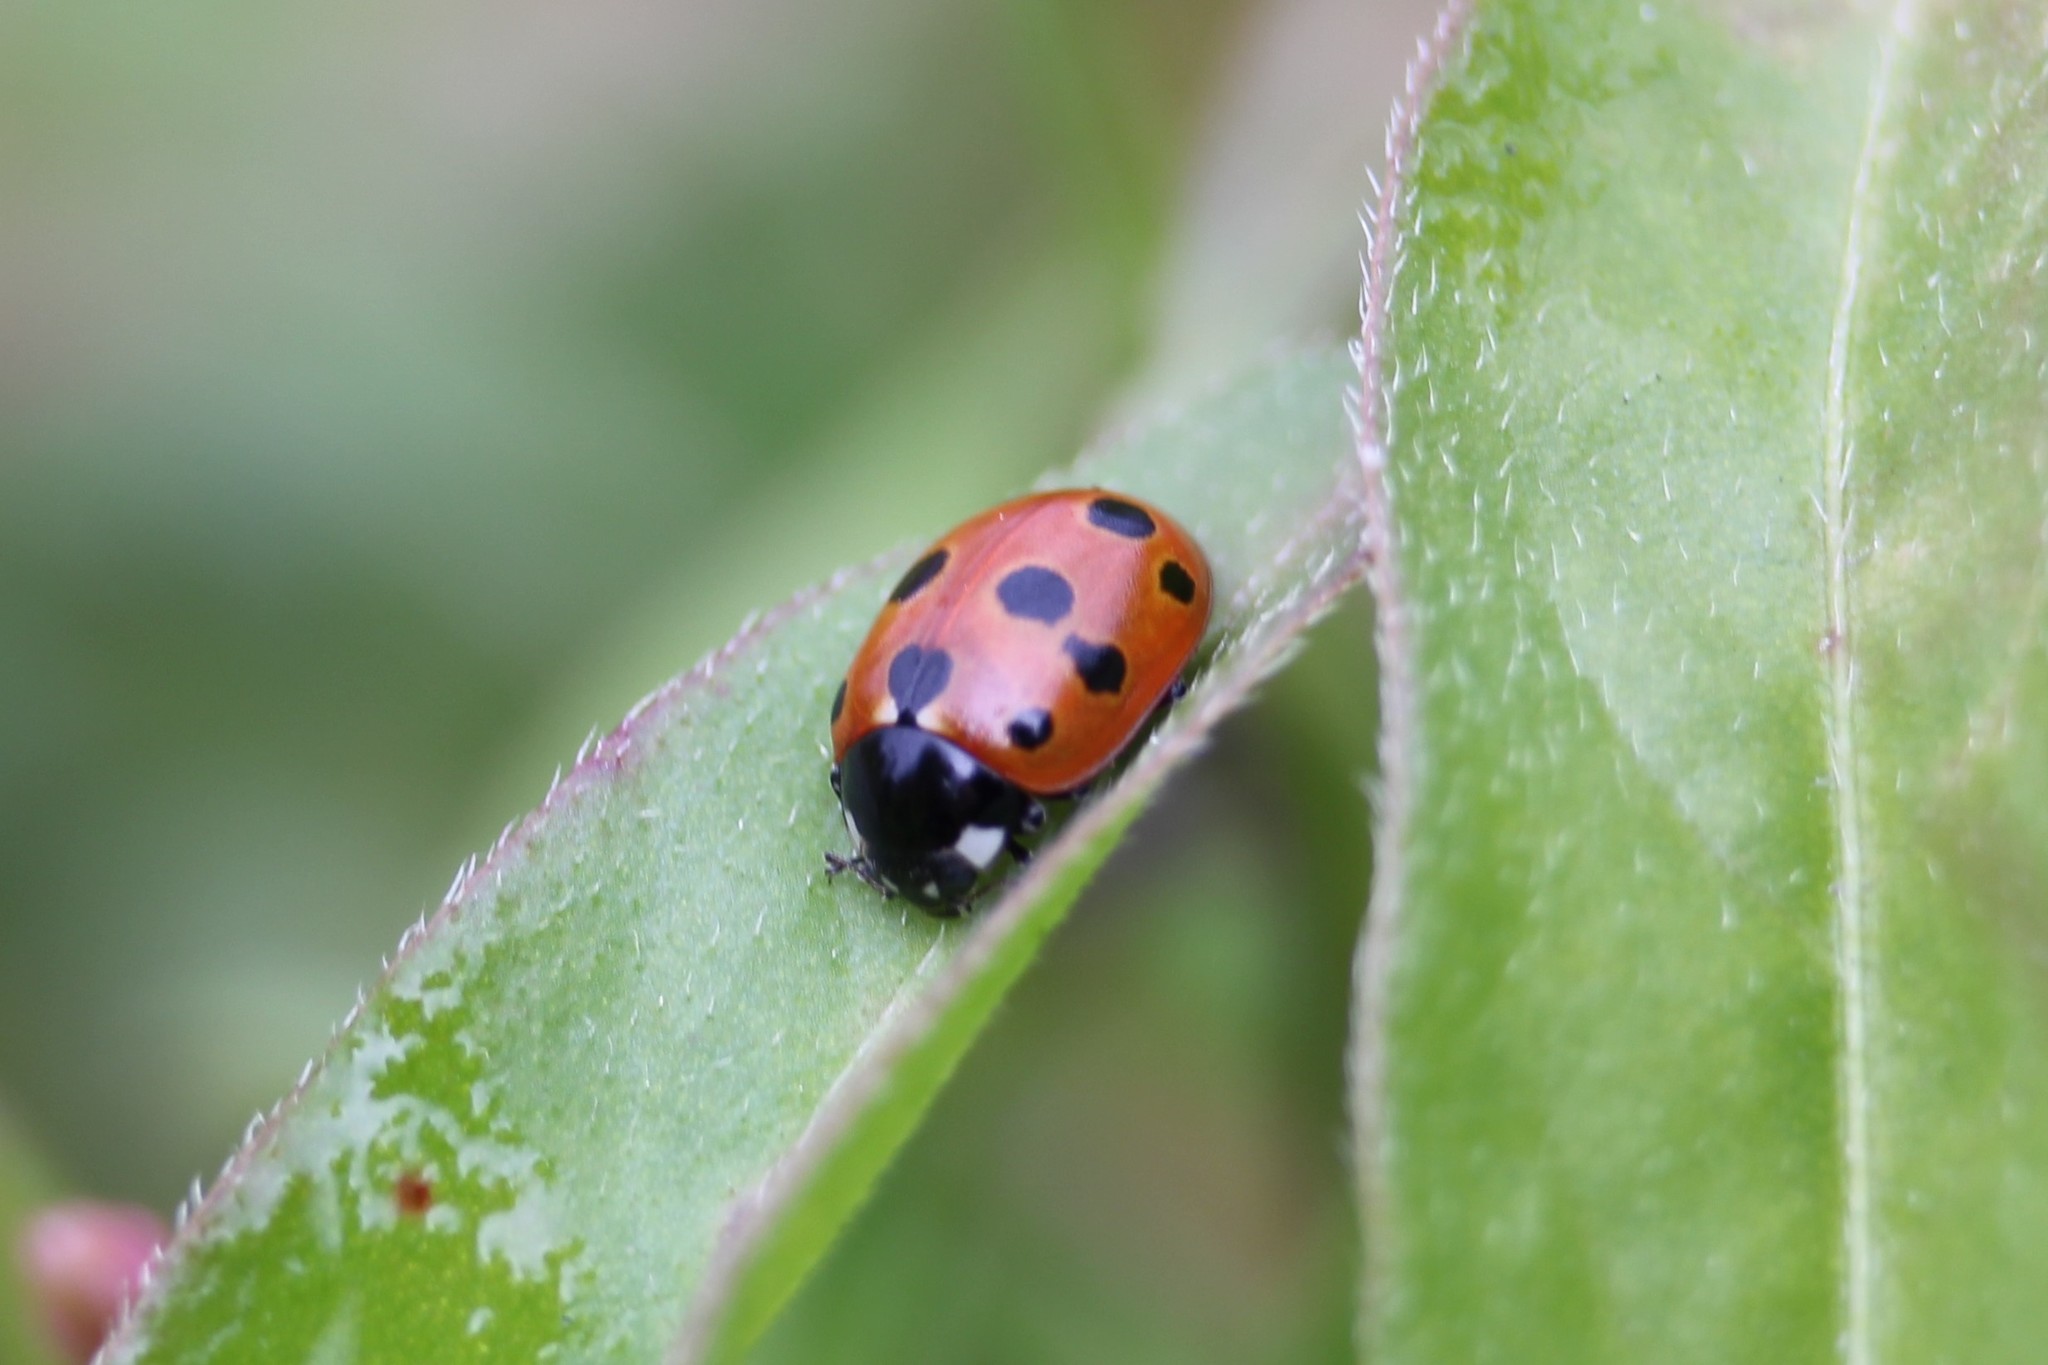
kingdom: Animalia
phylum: Arthropoda
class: Insecta
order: Coleoptera
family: Coccinellidae
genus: Coccinella
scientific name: Coccinella undecimpunctata
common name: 11-spot ladybird
